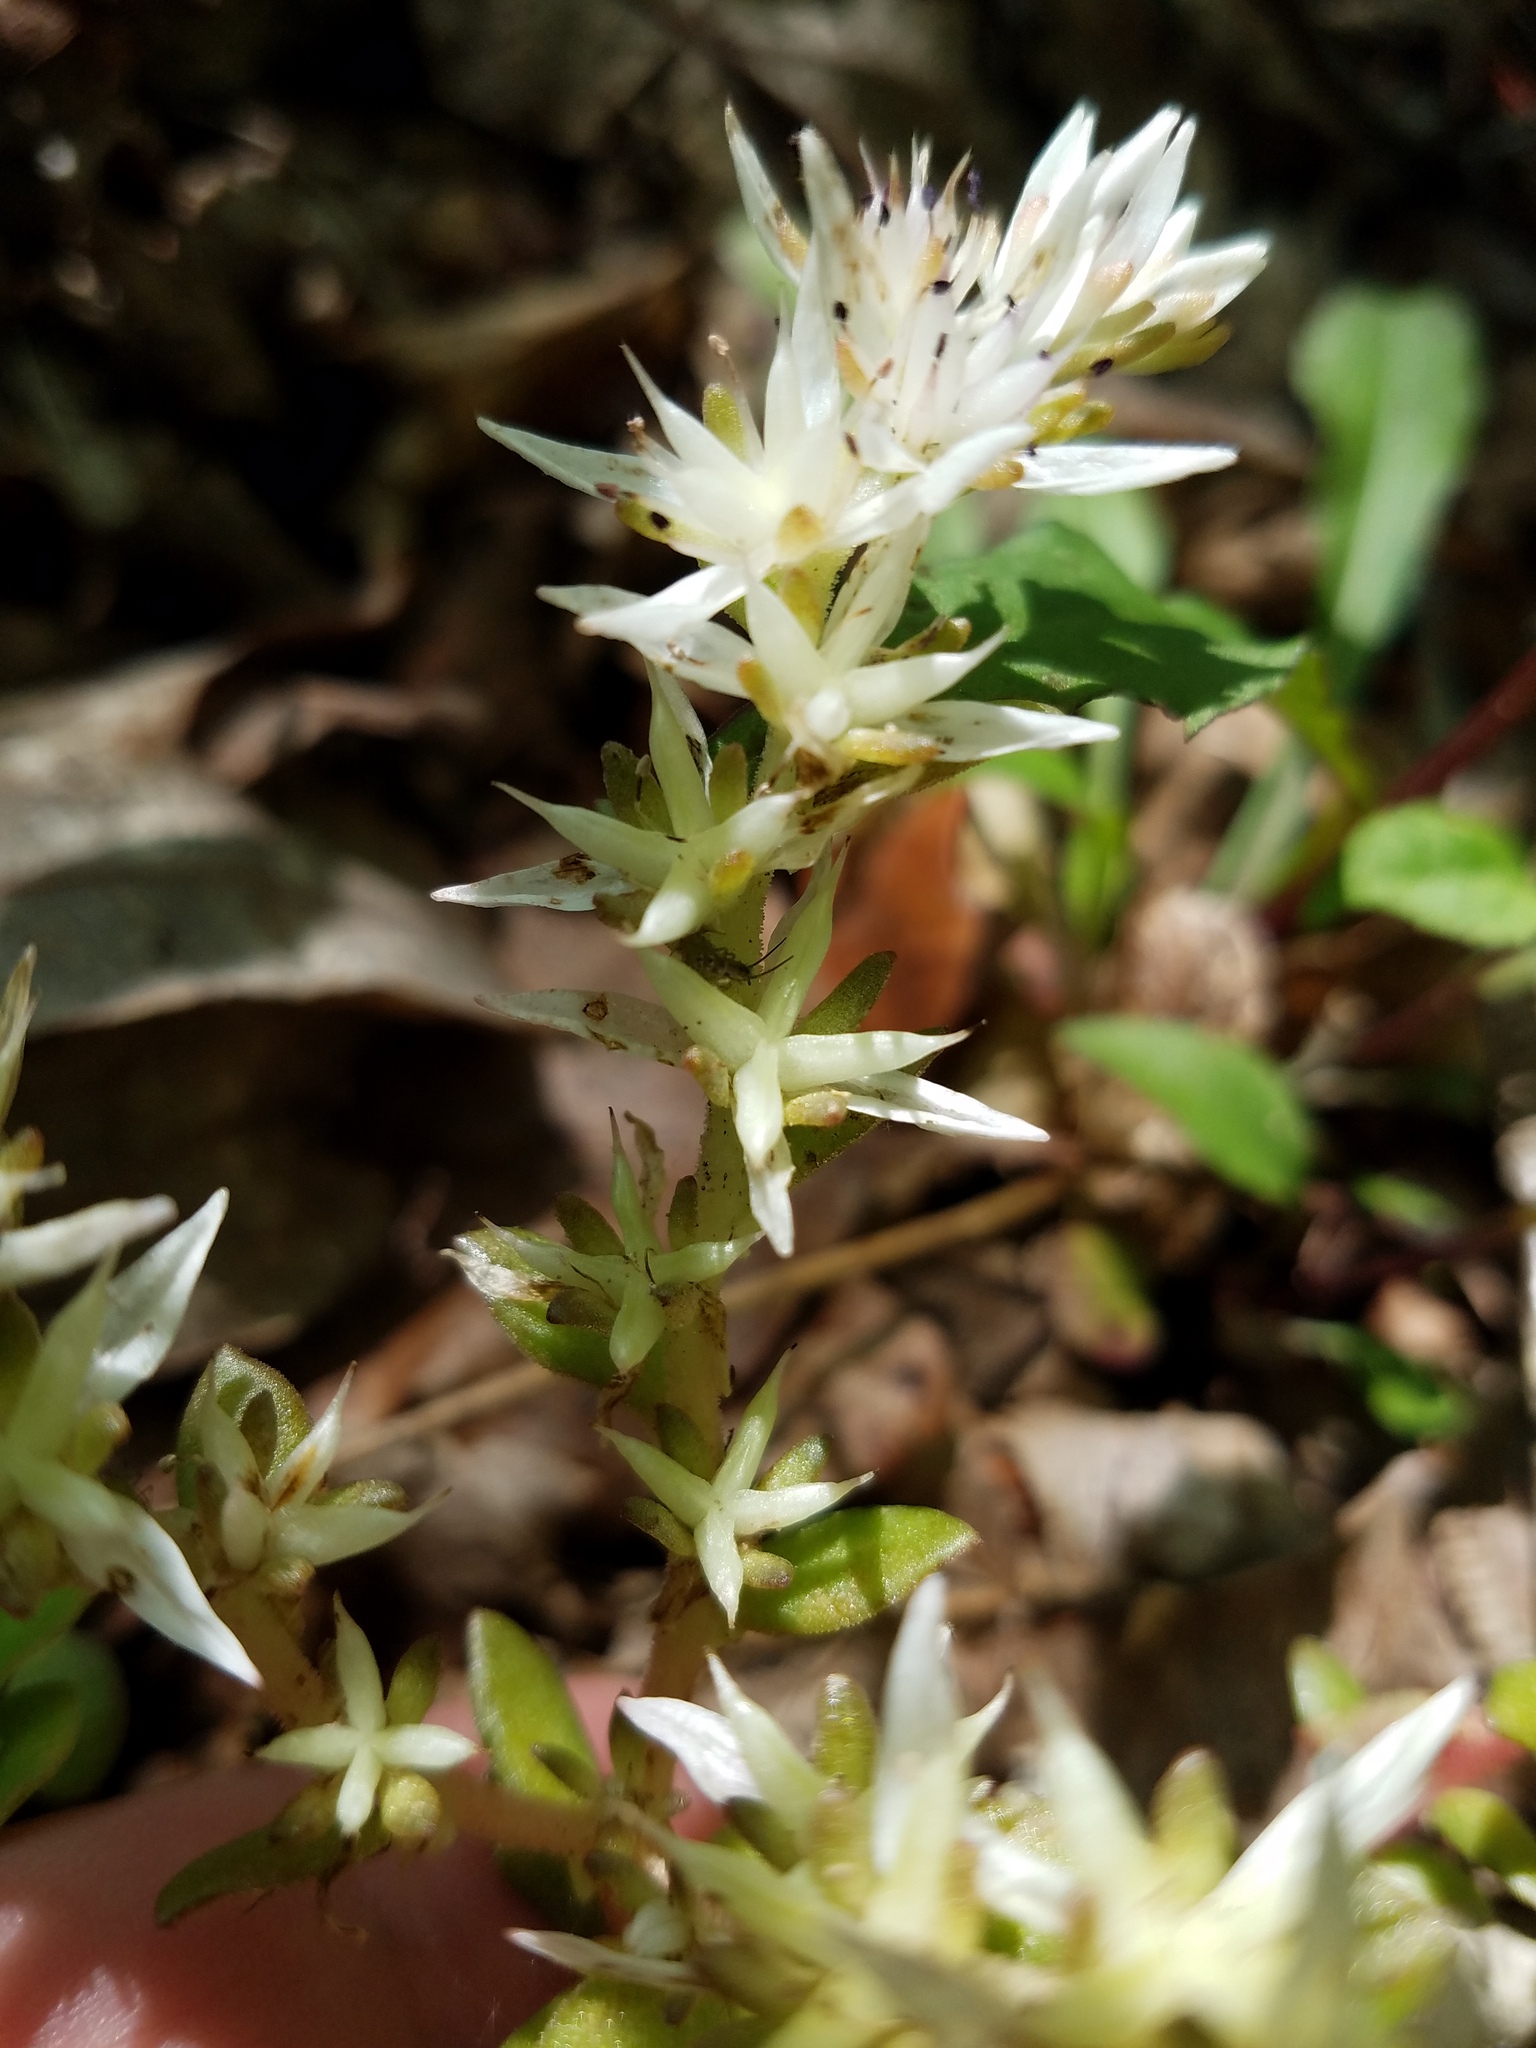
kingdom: Plantae
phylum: Tracheophyta
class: Magnoliopsida
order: Saxifragales
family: Crassulaceae
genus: Sedum
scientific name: Sedum ternatum
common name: Wild stonecrop
